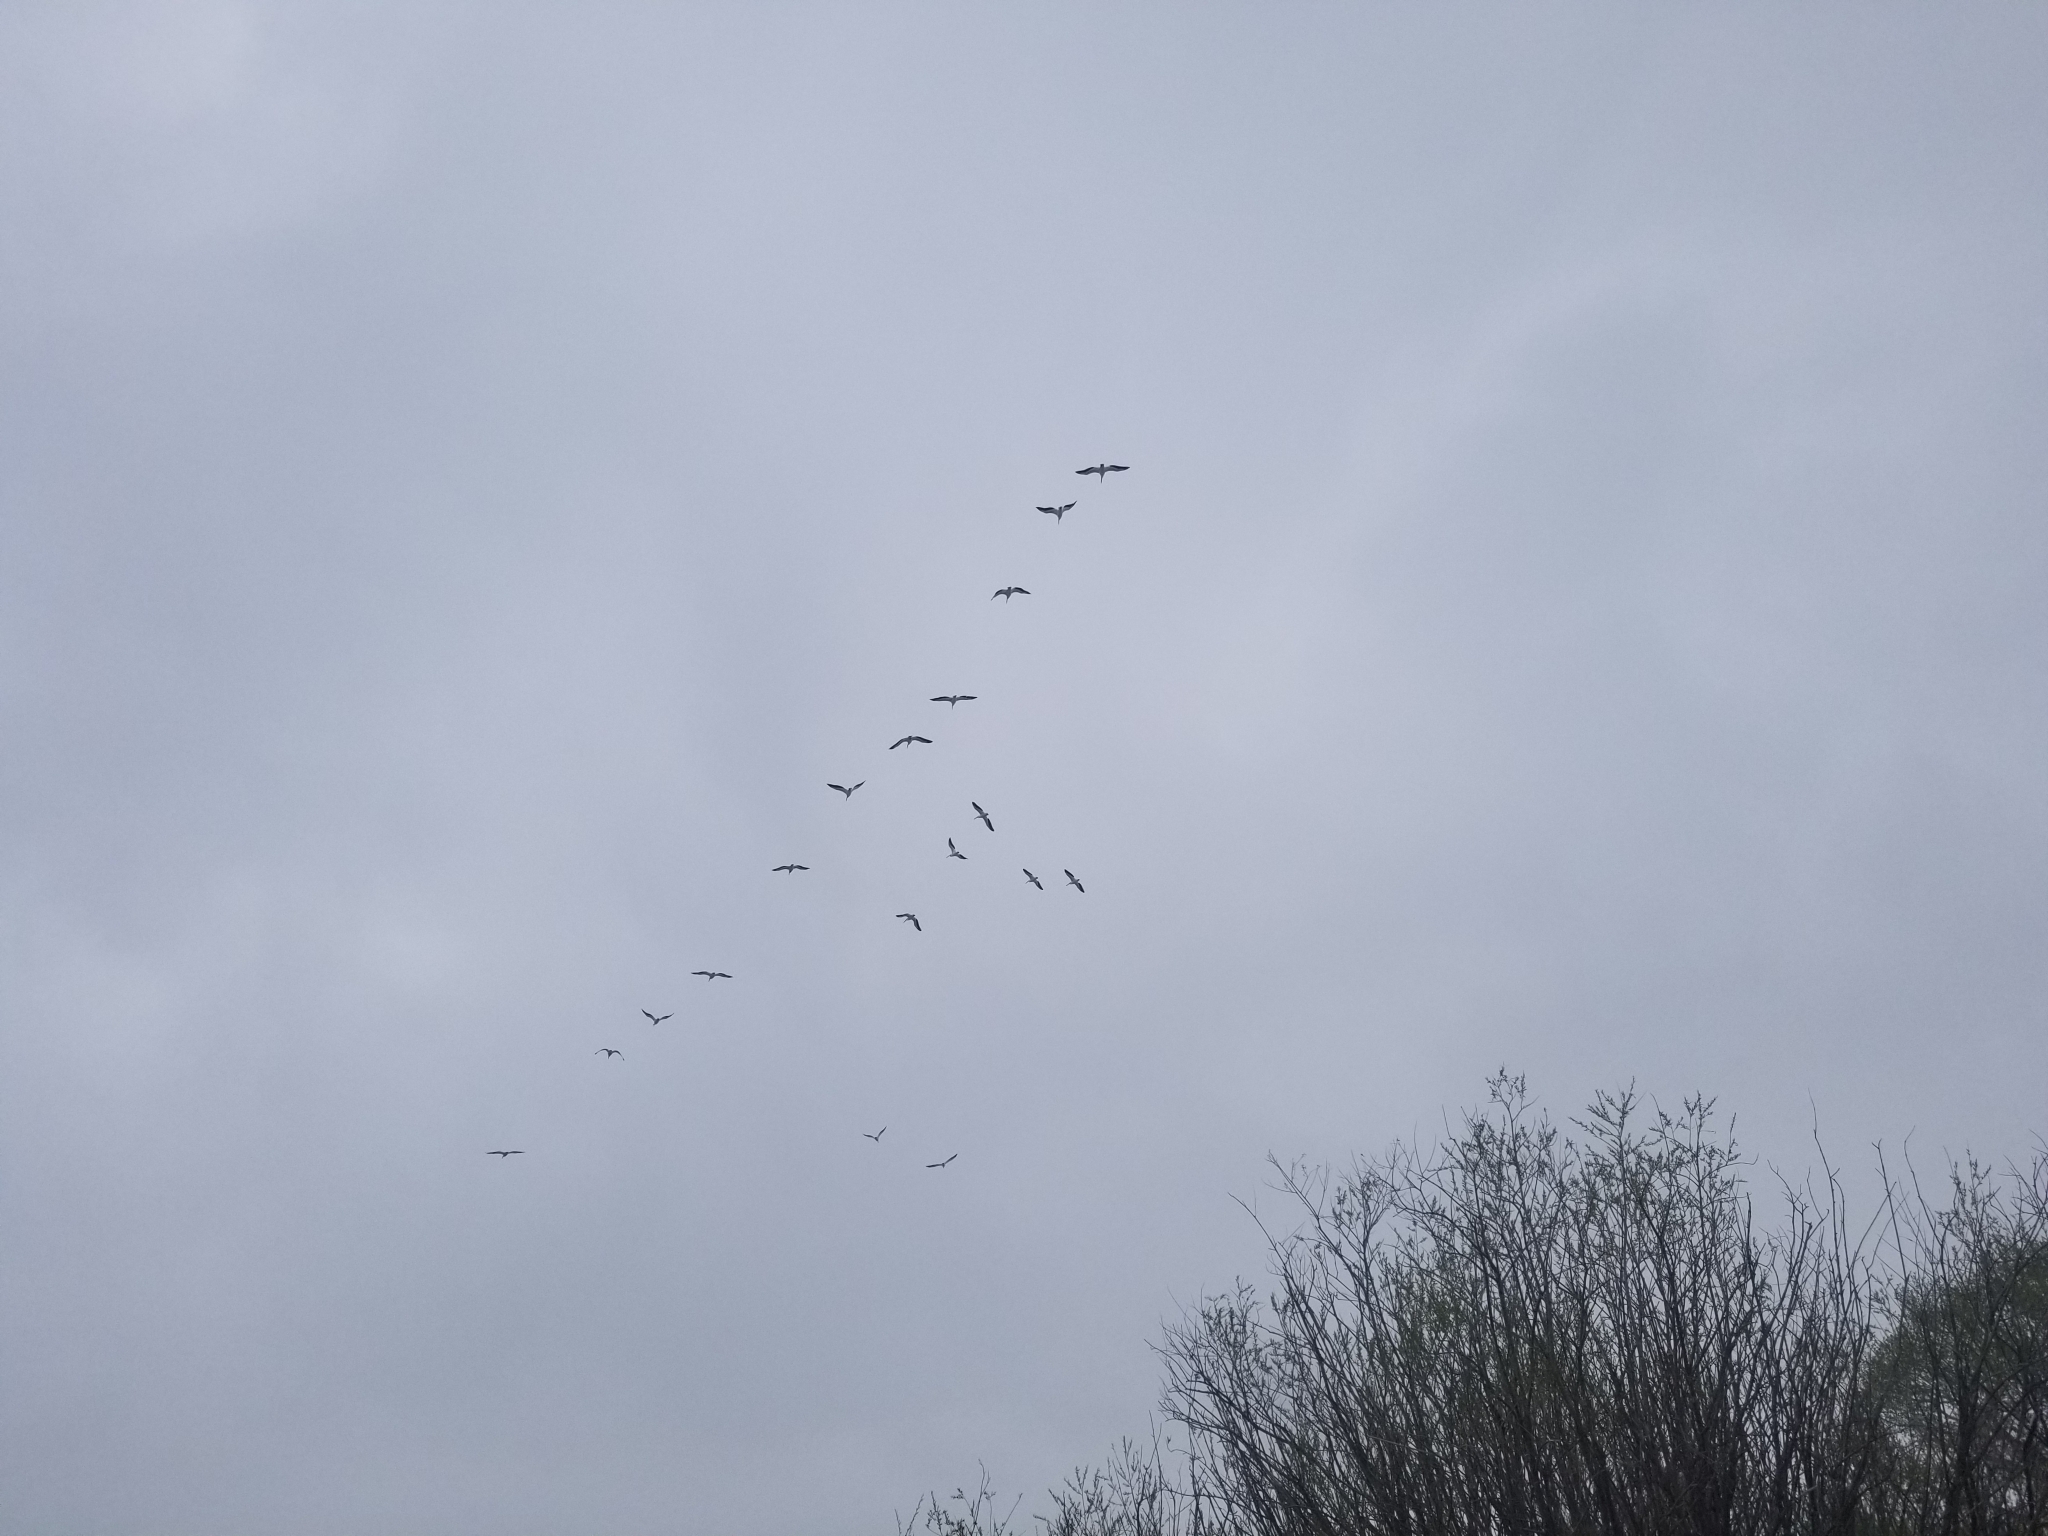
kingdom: Animalia
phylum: Chordata
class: Aves
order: Pelecaniformes
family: Pelecanidae
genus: Pelecanus
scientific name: Pelecanus erythrorhynchos
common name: American white pelican
